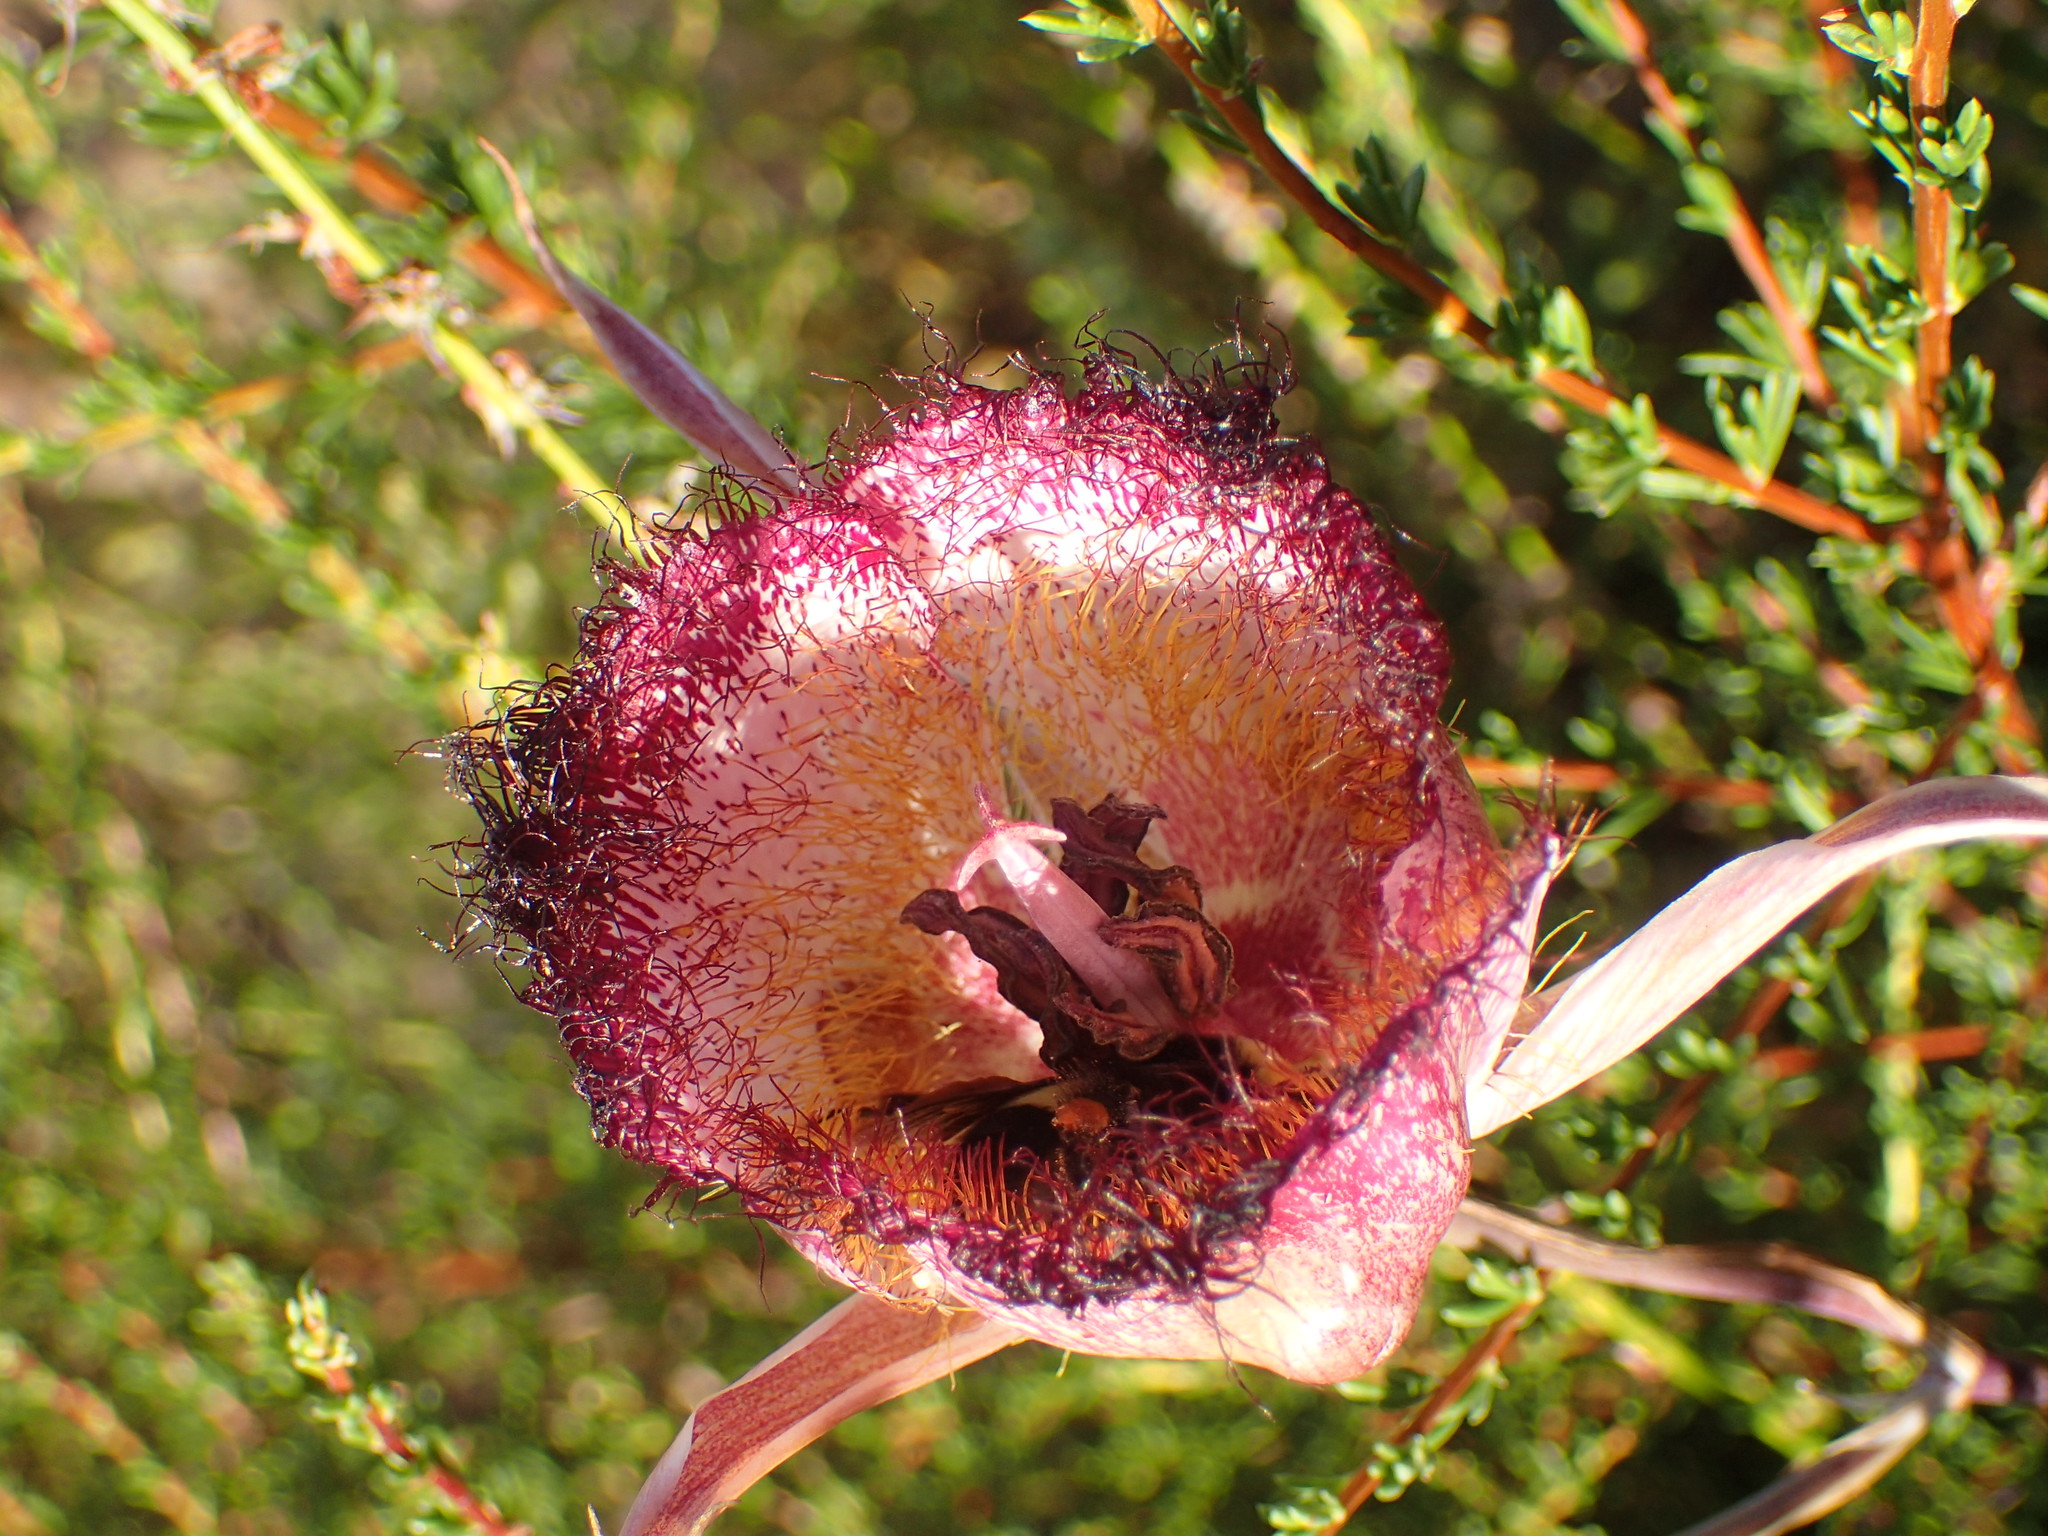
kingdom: Plantae
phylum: Tracheophyta
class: Liliopsida
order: Liliales
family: Liliaceae
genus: Calochortus
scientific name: Calochortus fimbriatus
